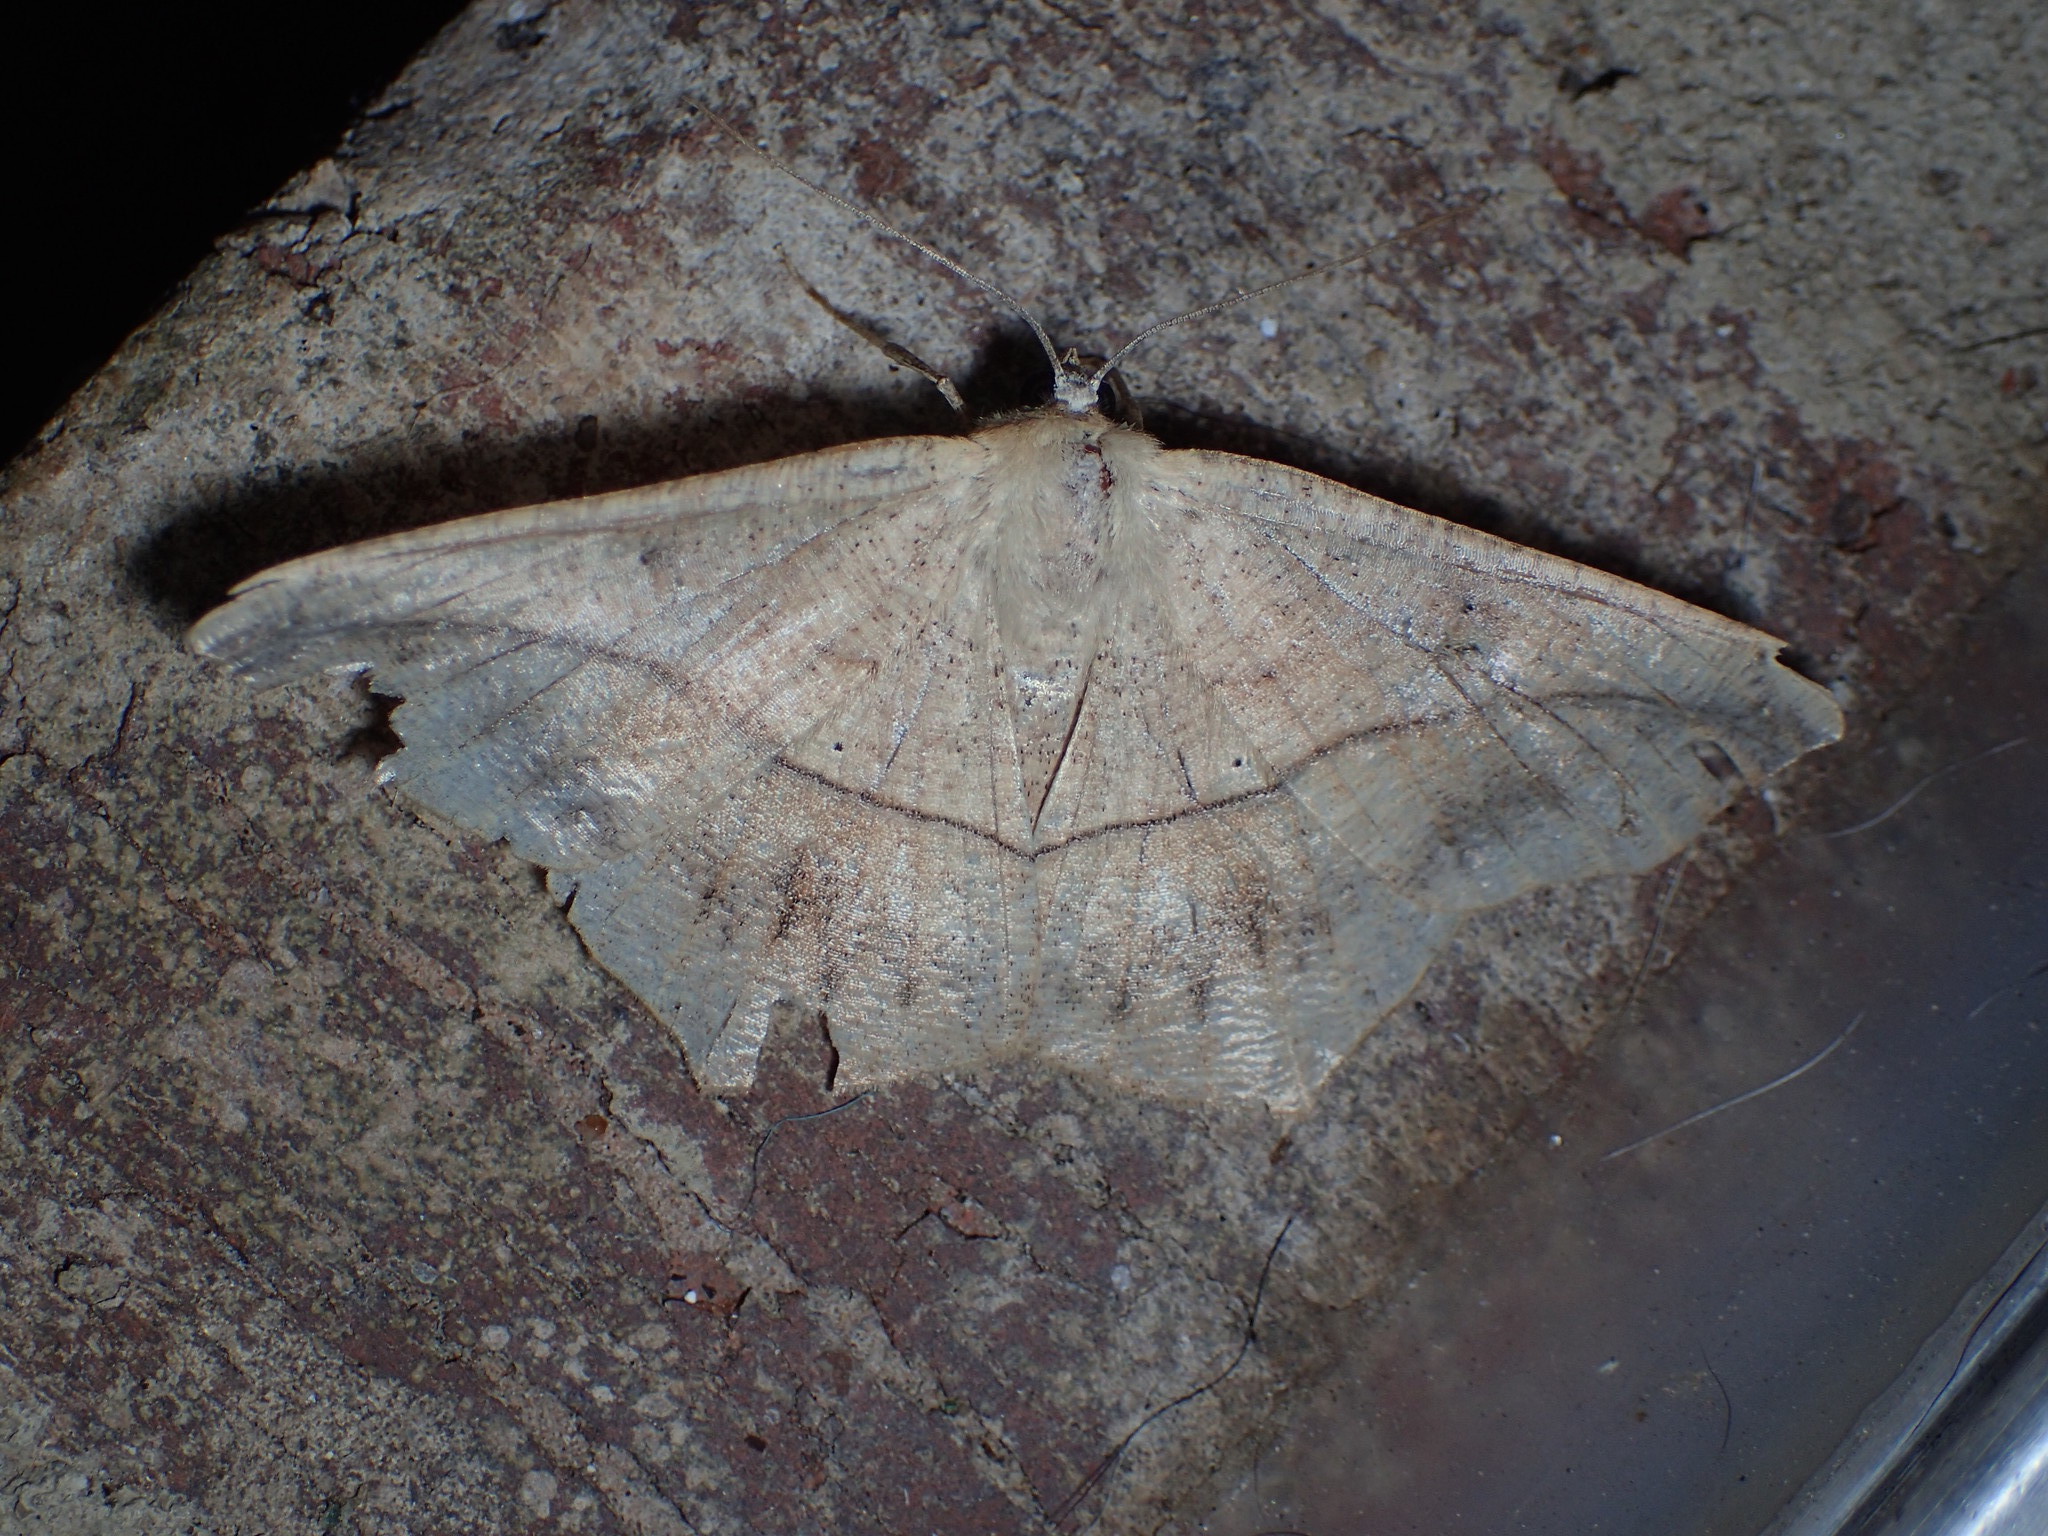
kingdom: Animalia
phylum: Arthropoda
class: Insecta
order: Lepidoptera
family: Geometridae
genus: Prochoerodes
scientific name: Prochoerodes lineola
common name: Large maple spanworm
